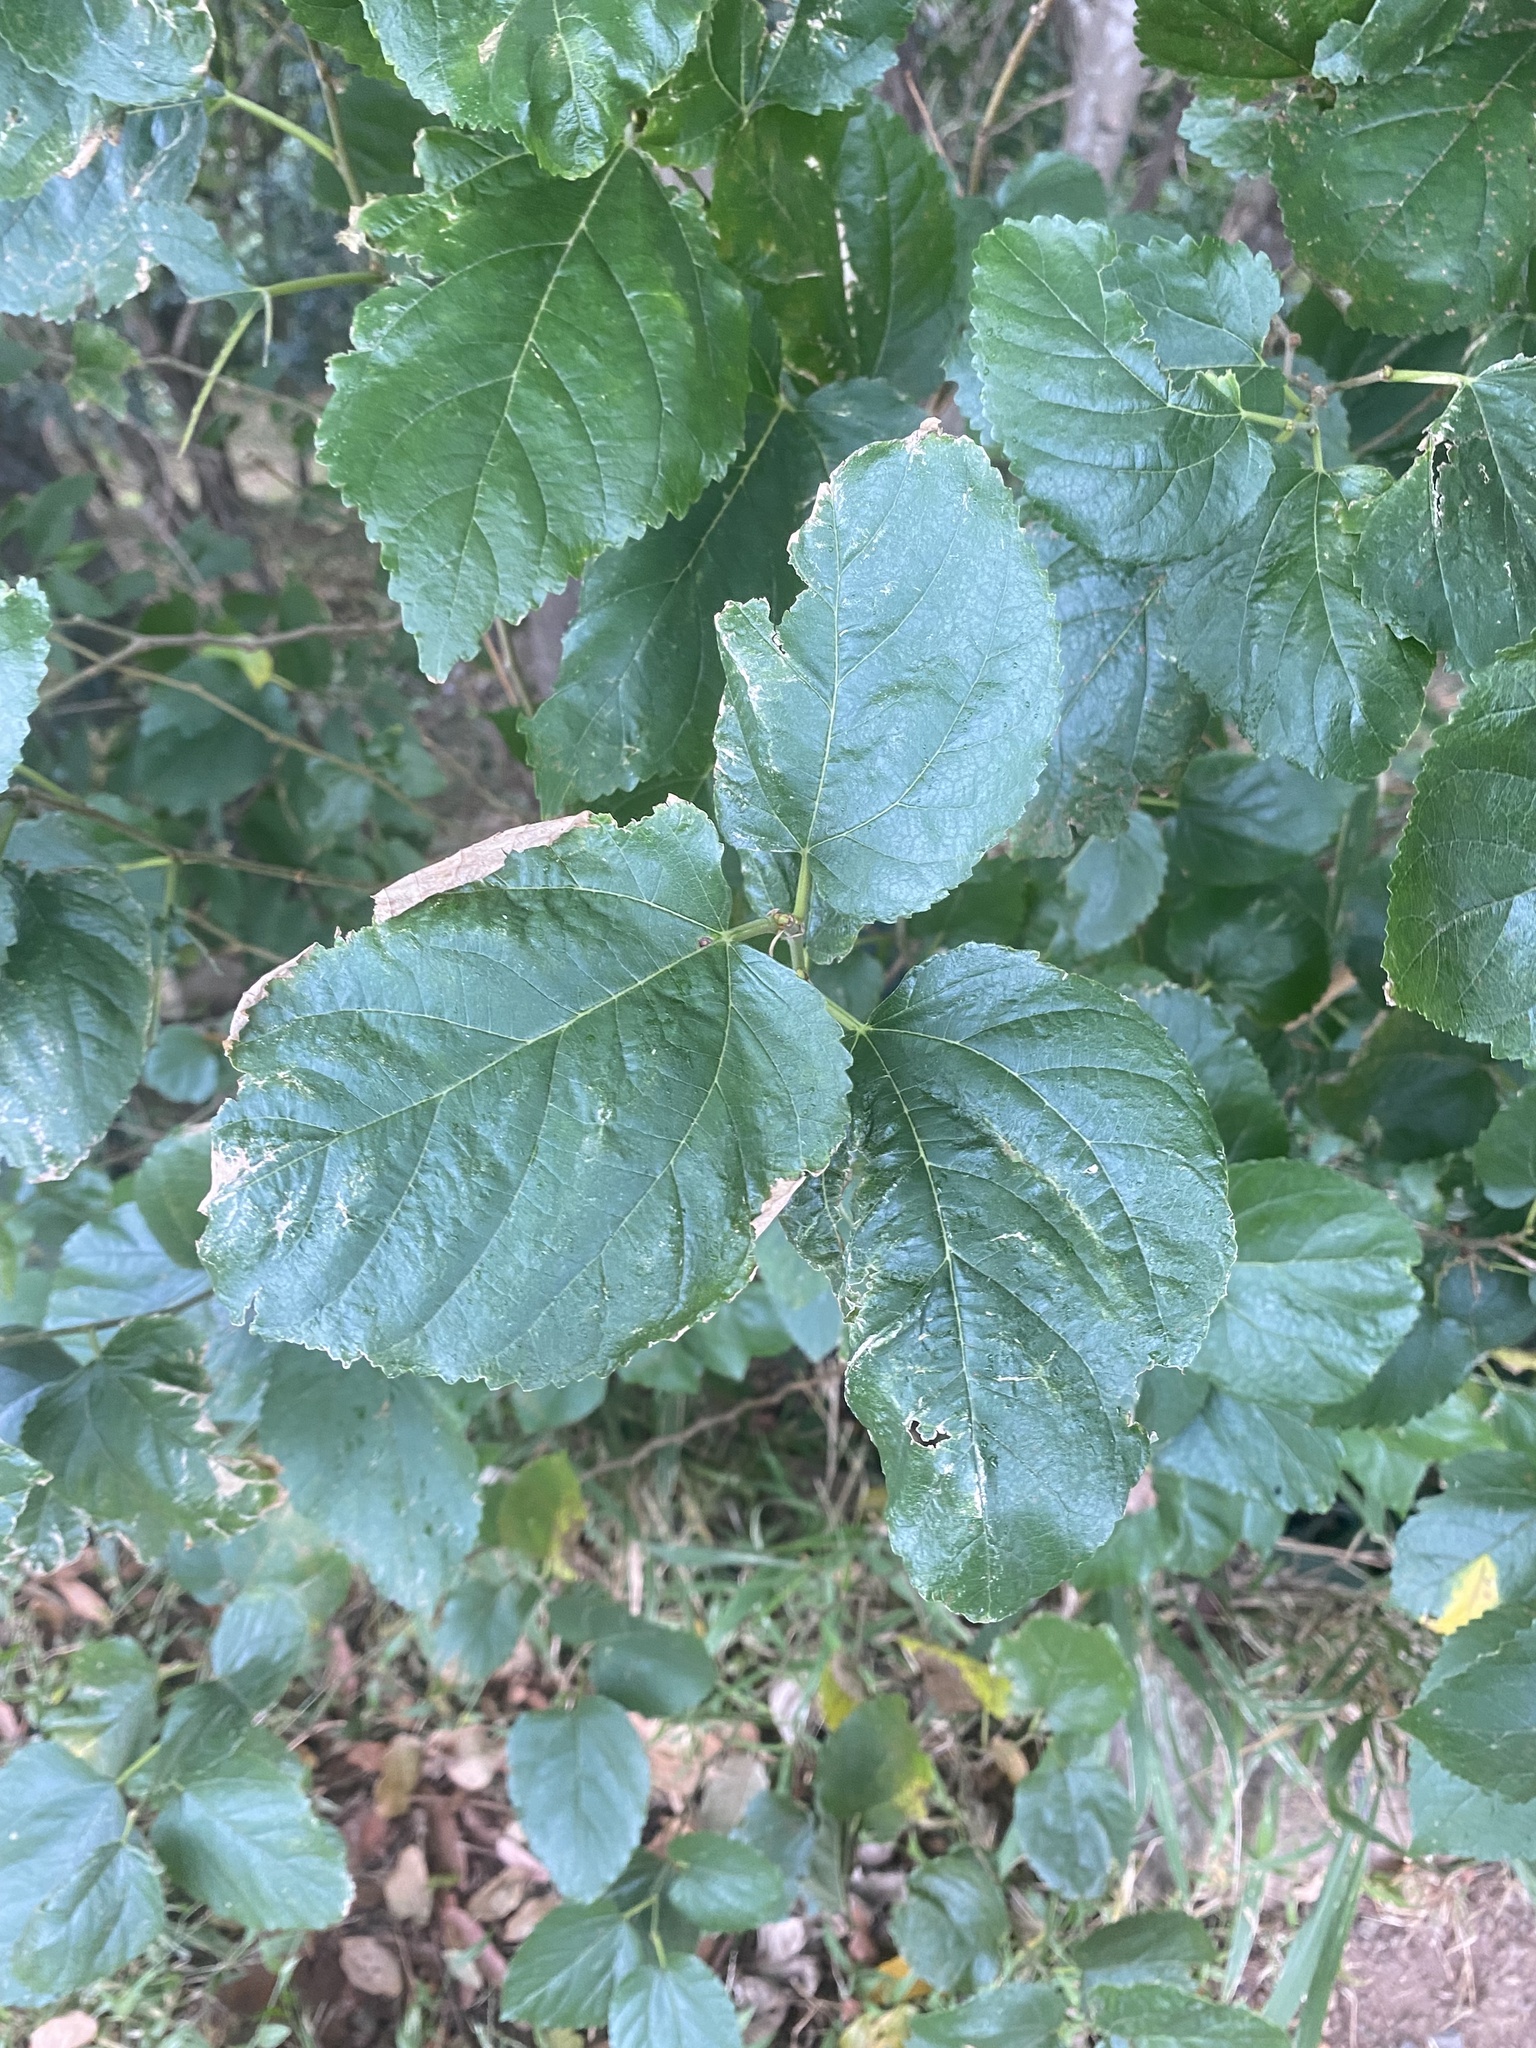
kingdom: Plantae
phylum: Tracheophyta
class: Magnoliopsida
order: Malpighiales
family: Salicaceae
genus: Trimeria
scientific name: Trimeria grandifolia
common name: Wild mulberry
